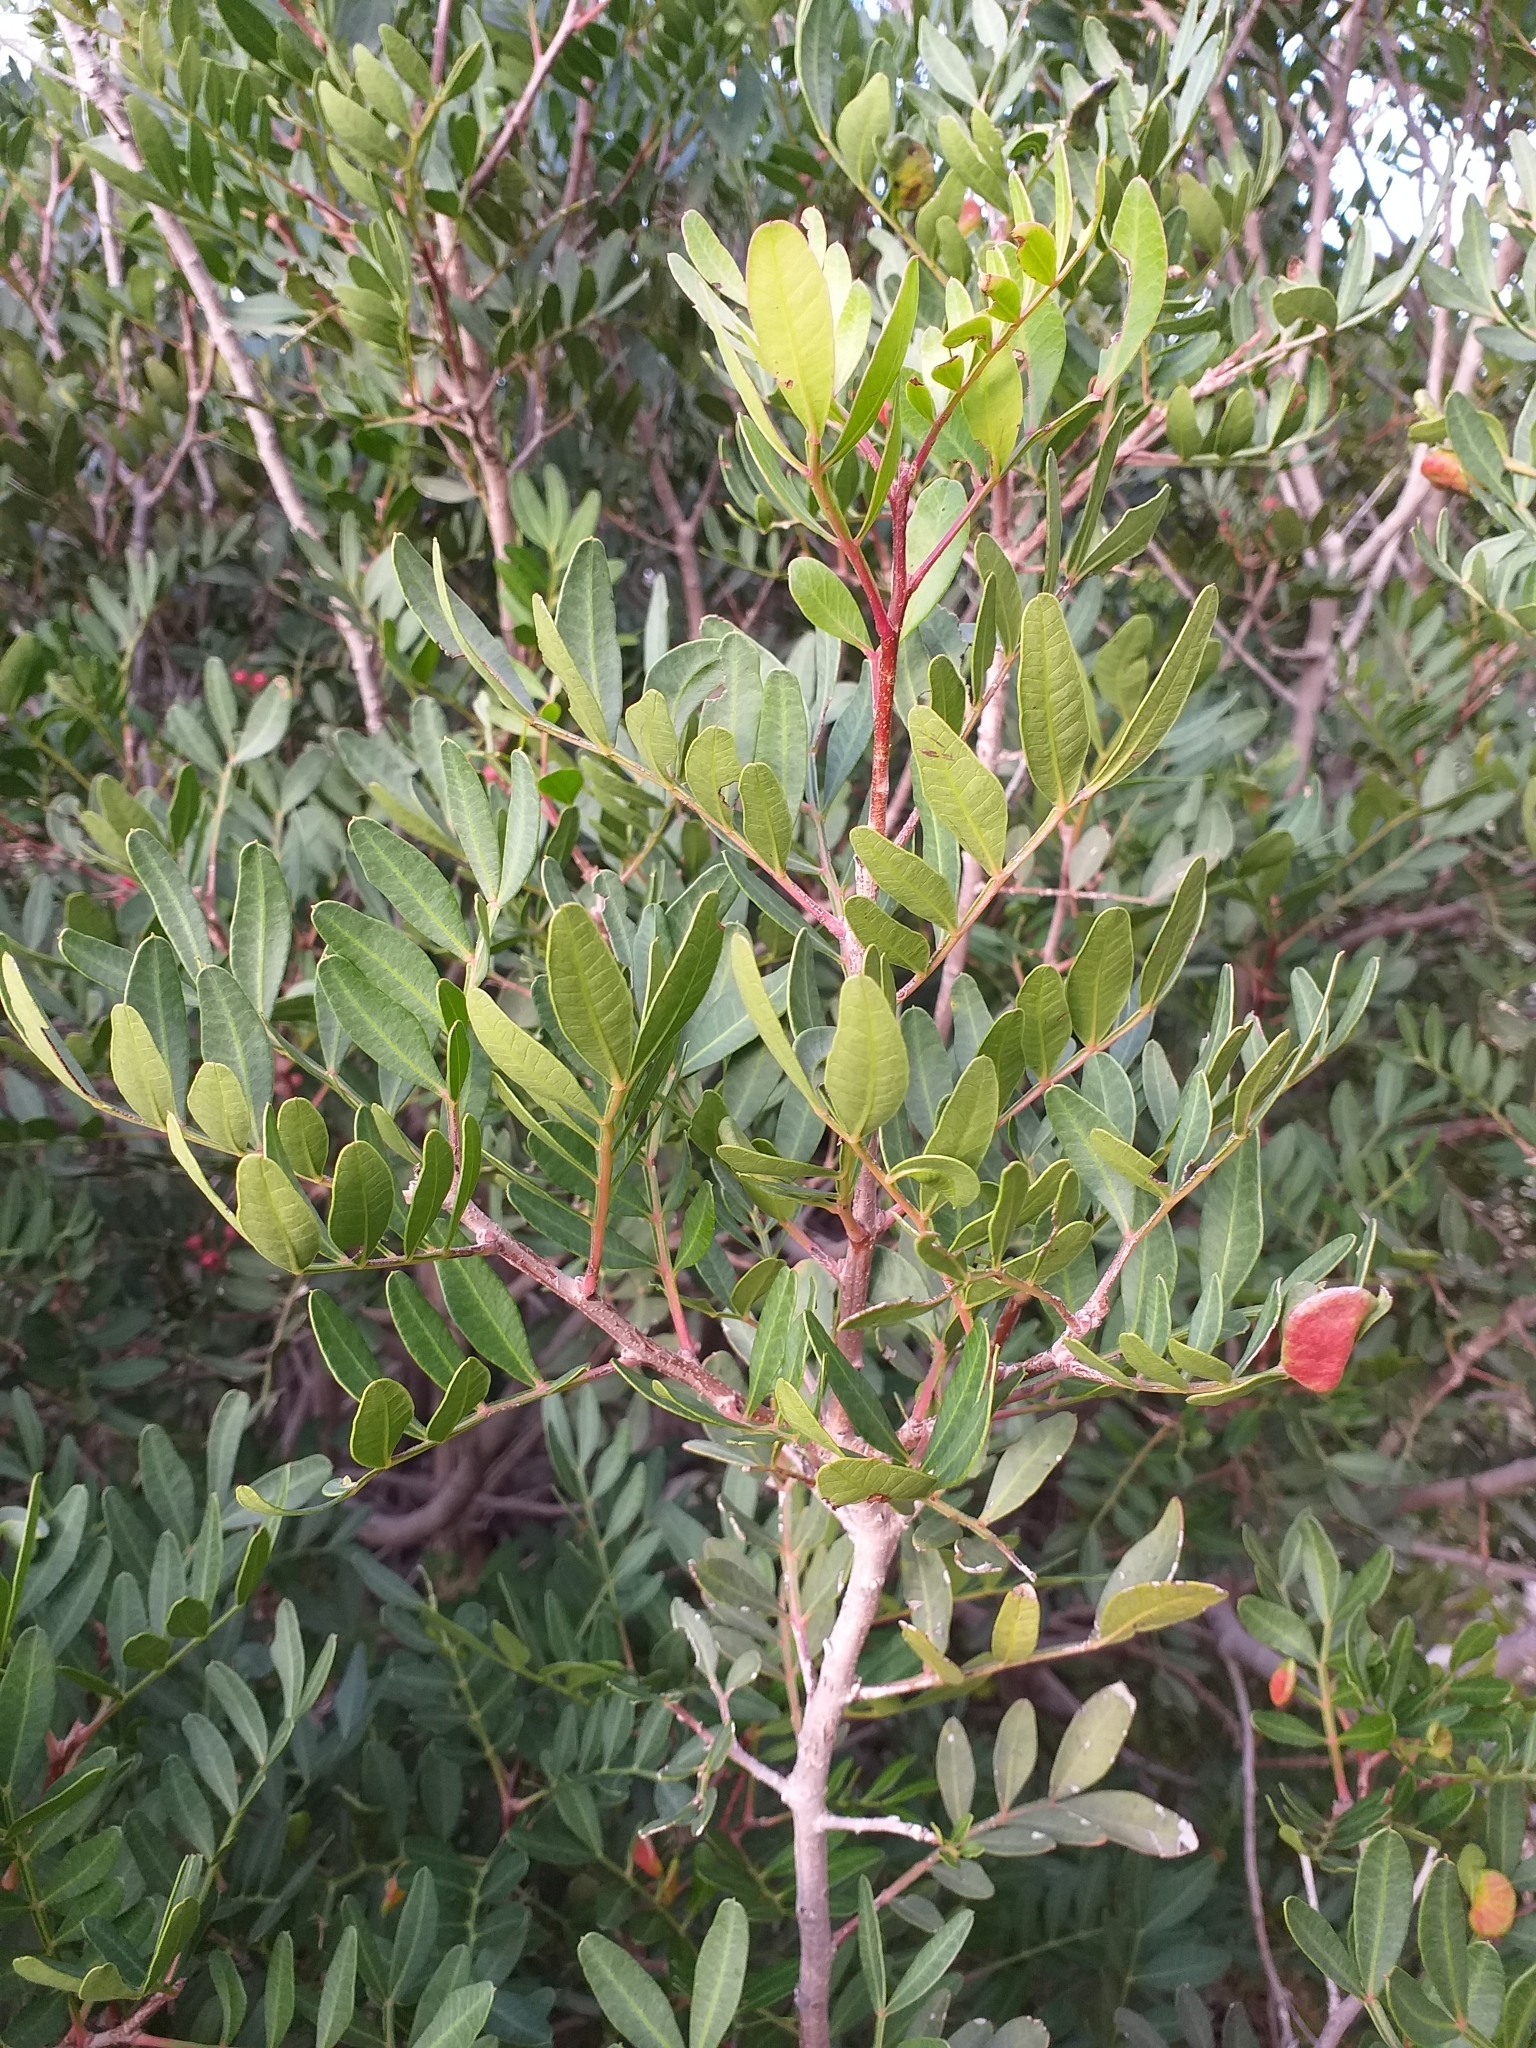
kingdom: Plantae
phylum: Tracheophyta
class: Magnoliopsida
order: Sapindales
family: Anacardiaceae
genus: Pistacia
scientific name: Pistacia lentiscus
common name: Lentisk
